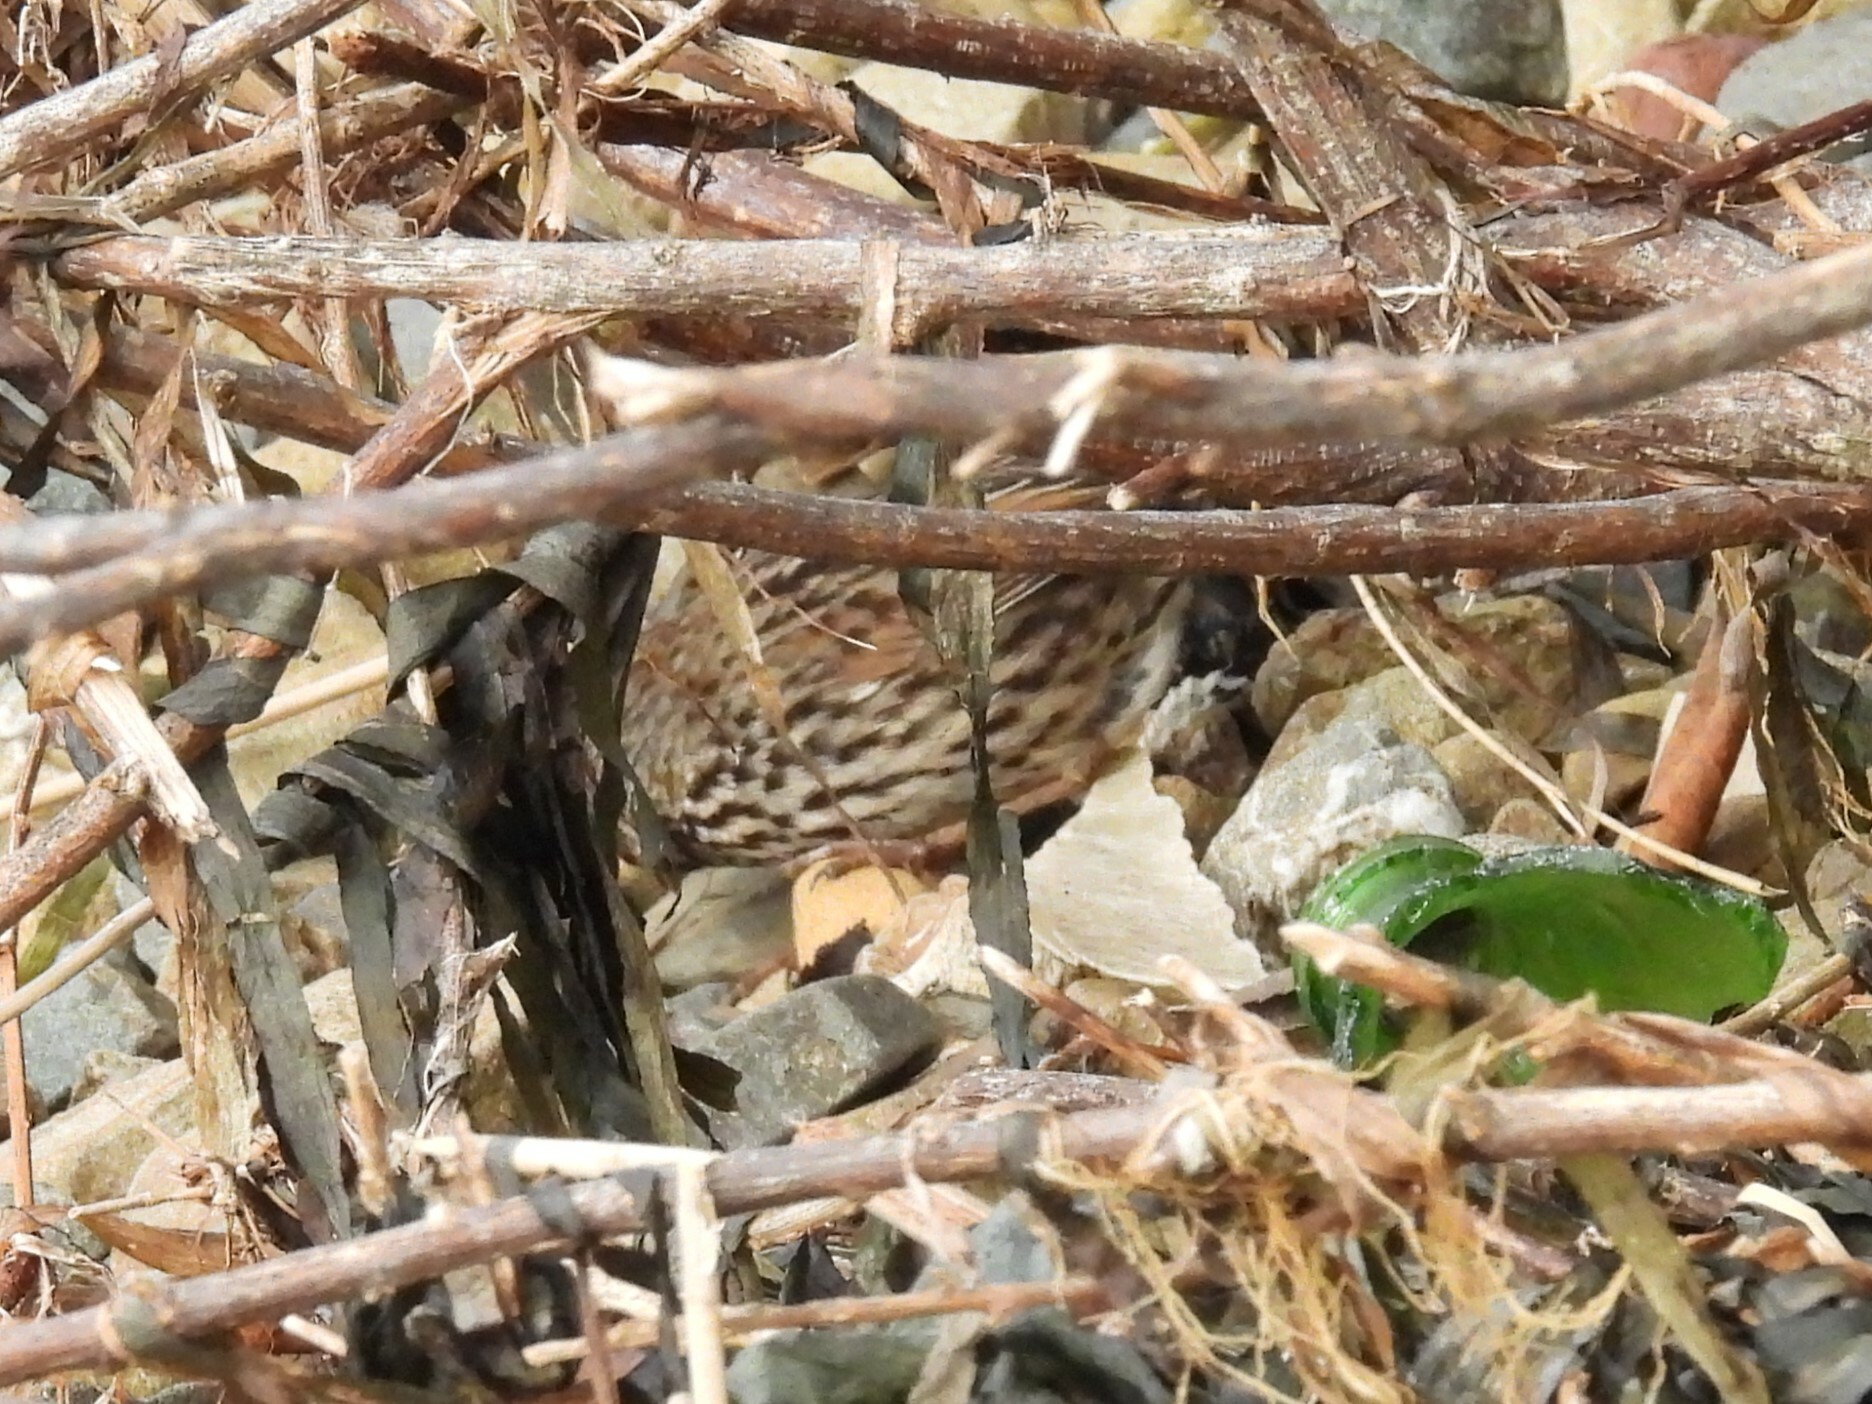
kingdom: Animalia
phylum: Chordata
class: Aves
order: Passeriformes
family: Passerellidae
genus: Melospiza
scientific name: Melospiza melodia
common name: Song sparrow
